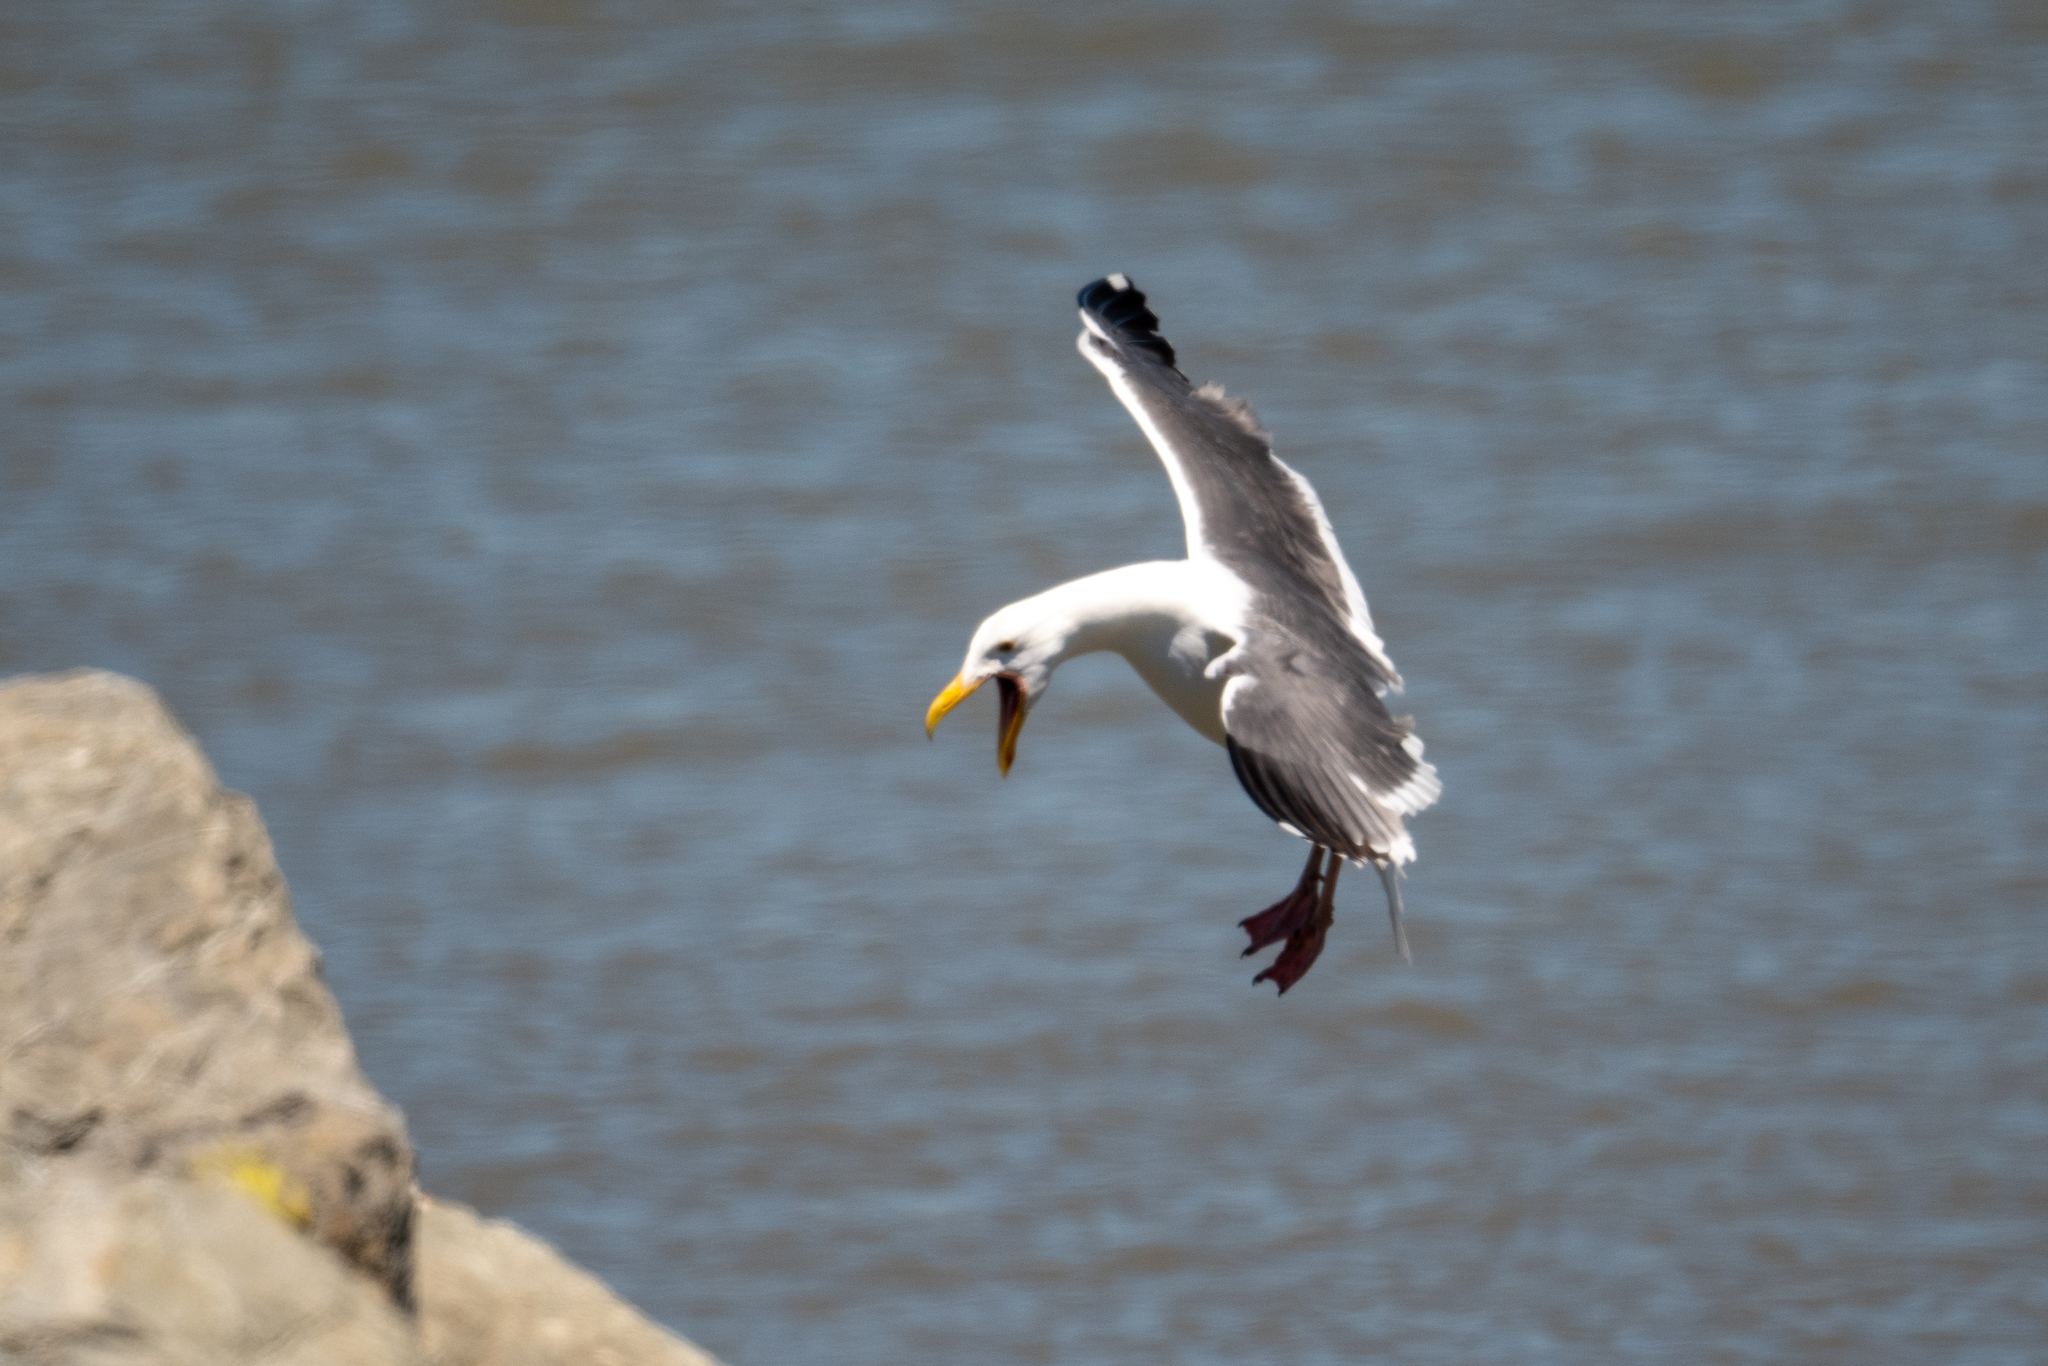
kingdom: Animalia
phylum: Chordata
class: Aves
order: Charadriiformes
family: Laridae
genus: Larus
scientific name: Larus occidentalis
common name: Western gull
